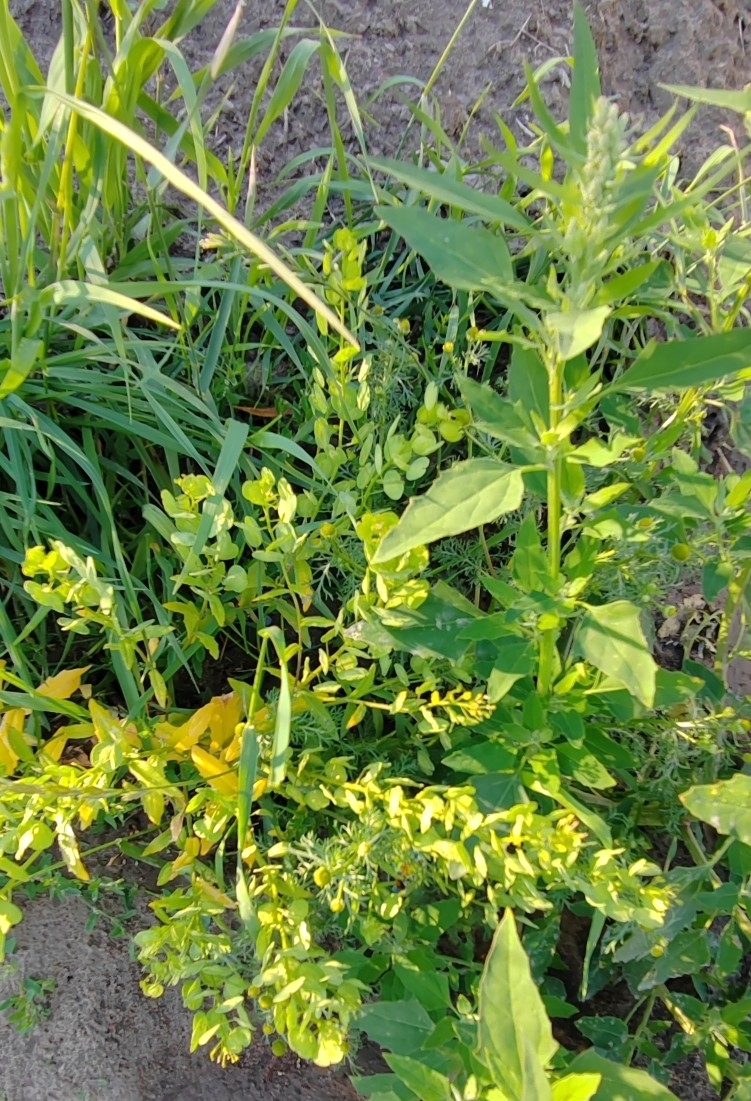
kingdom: Plantae
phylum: Tracheophyta
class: Magnoliopsida
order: Brassicales
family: Brassicaceae
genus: Thlaspi
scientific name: Thlaspi arvense
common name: Field pennycress
